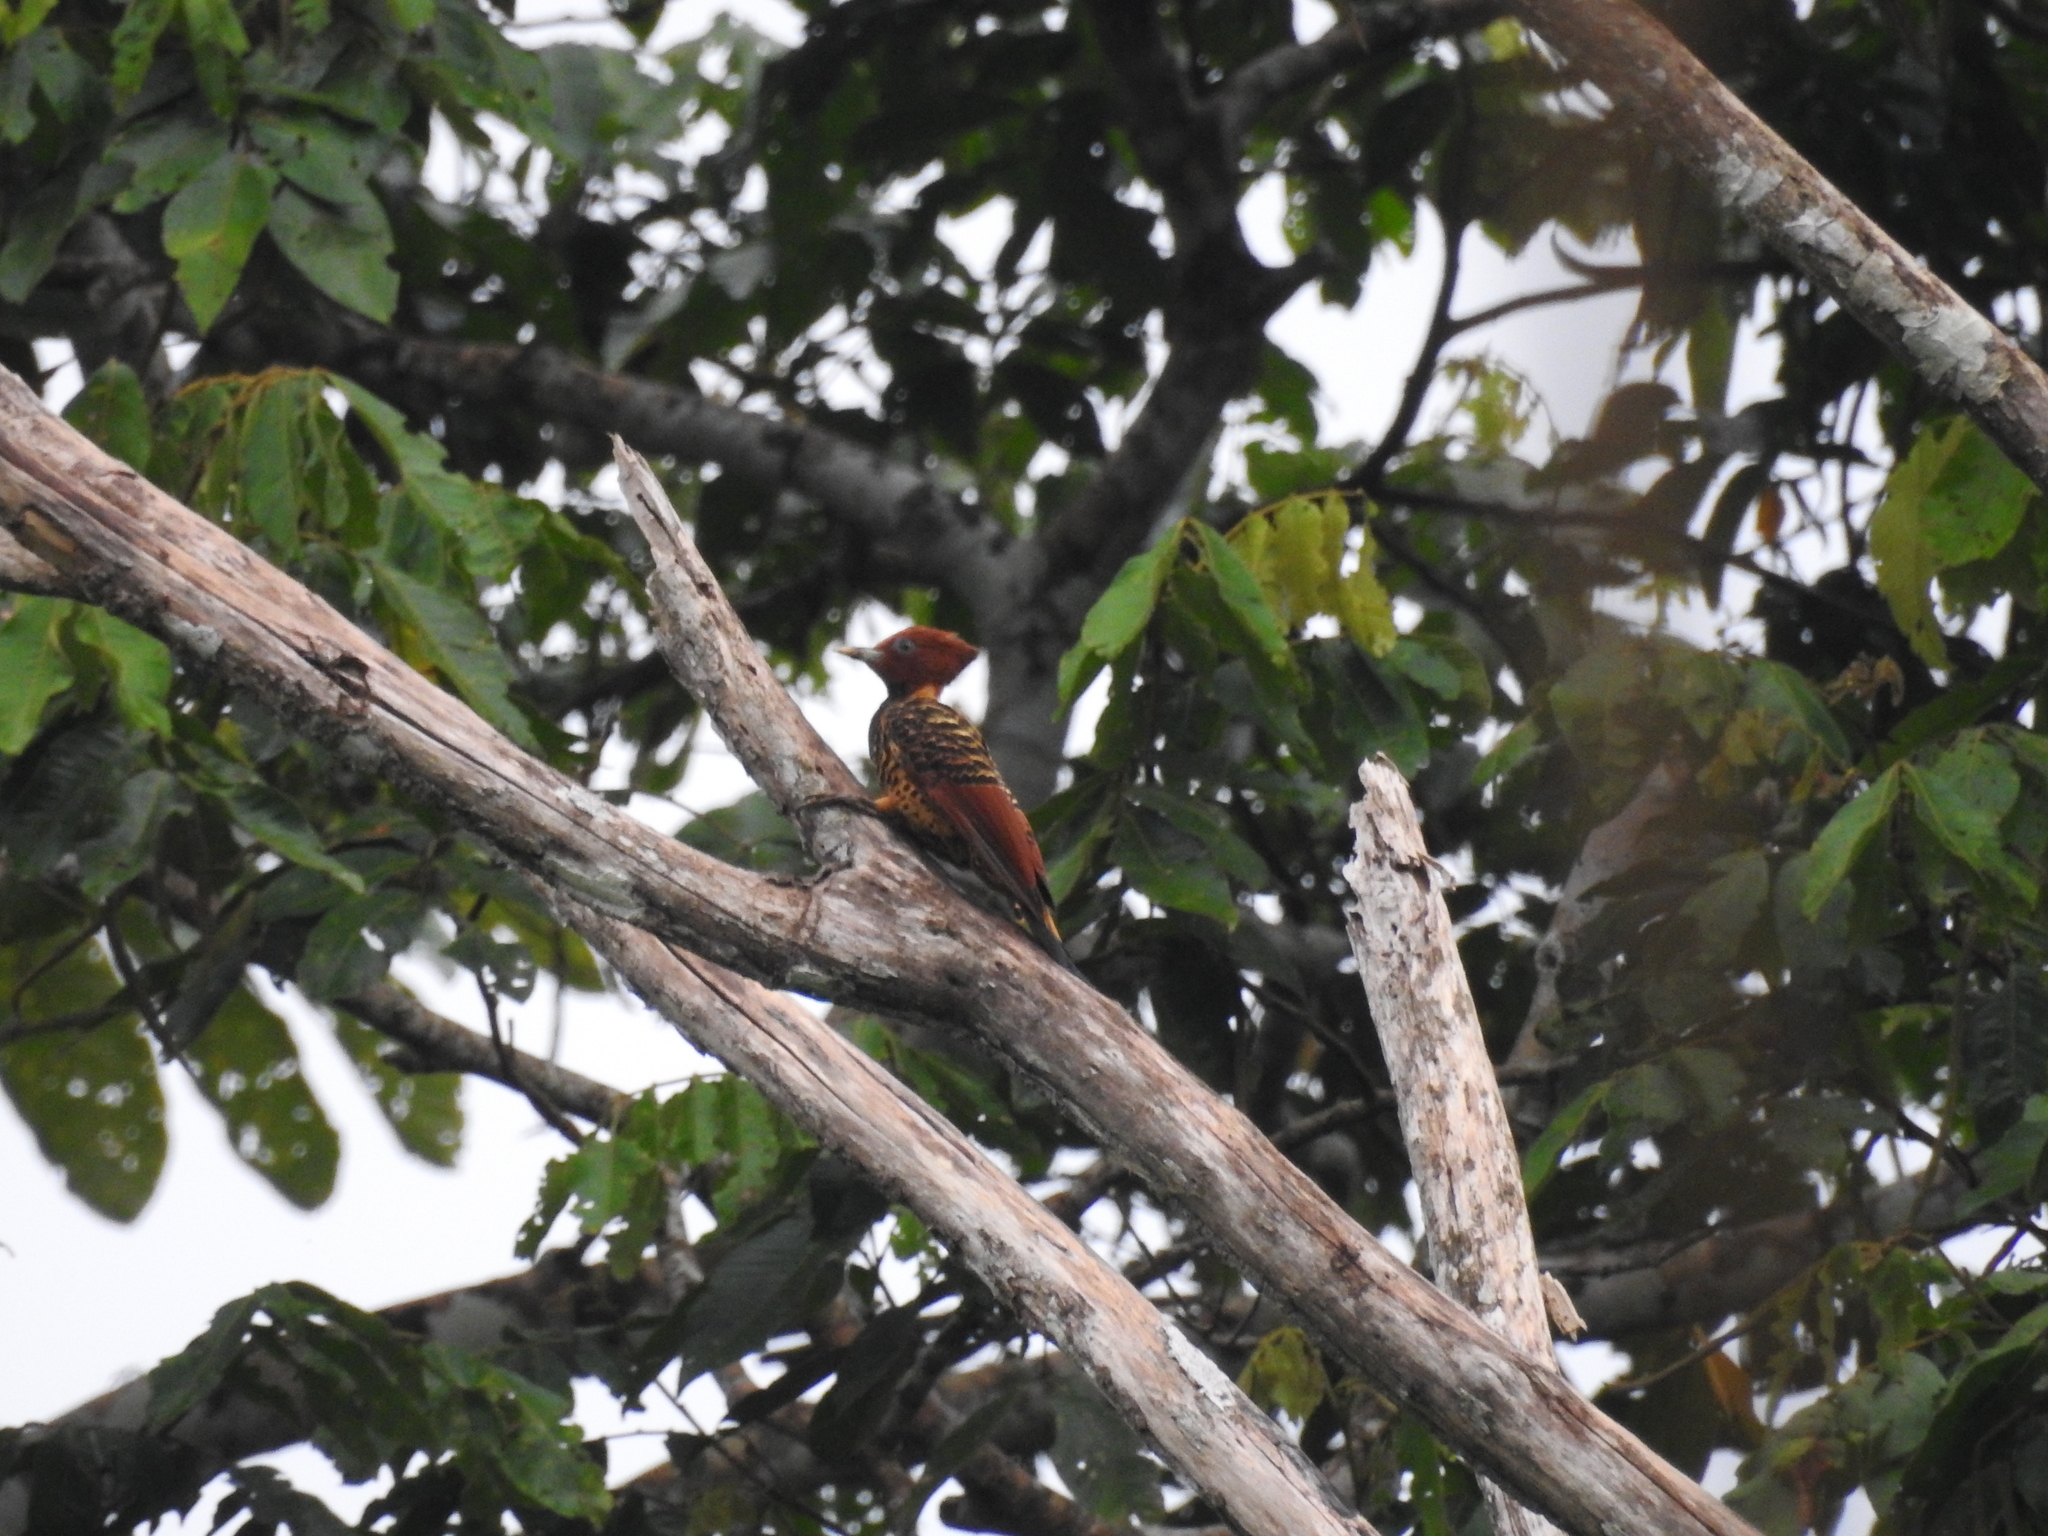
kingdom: Animalia
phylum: Chordata
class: Aves
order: Piciformes
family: Picidae
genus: Celeus
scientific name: Celeus spectabilis
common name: Rufous-headed woodpecker
